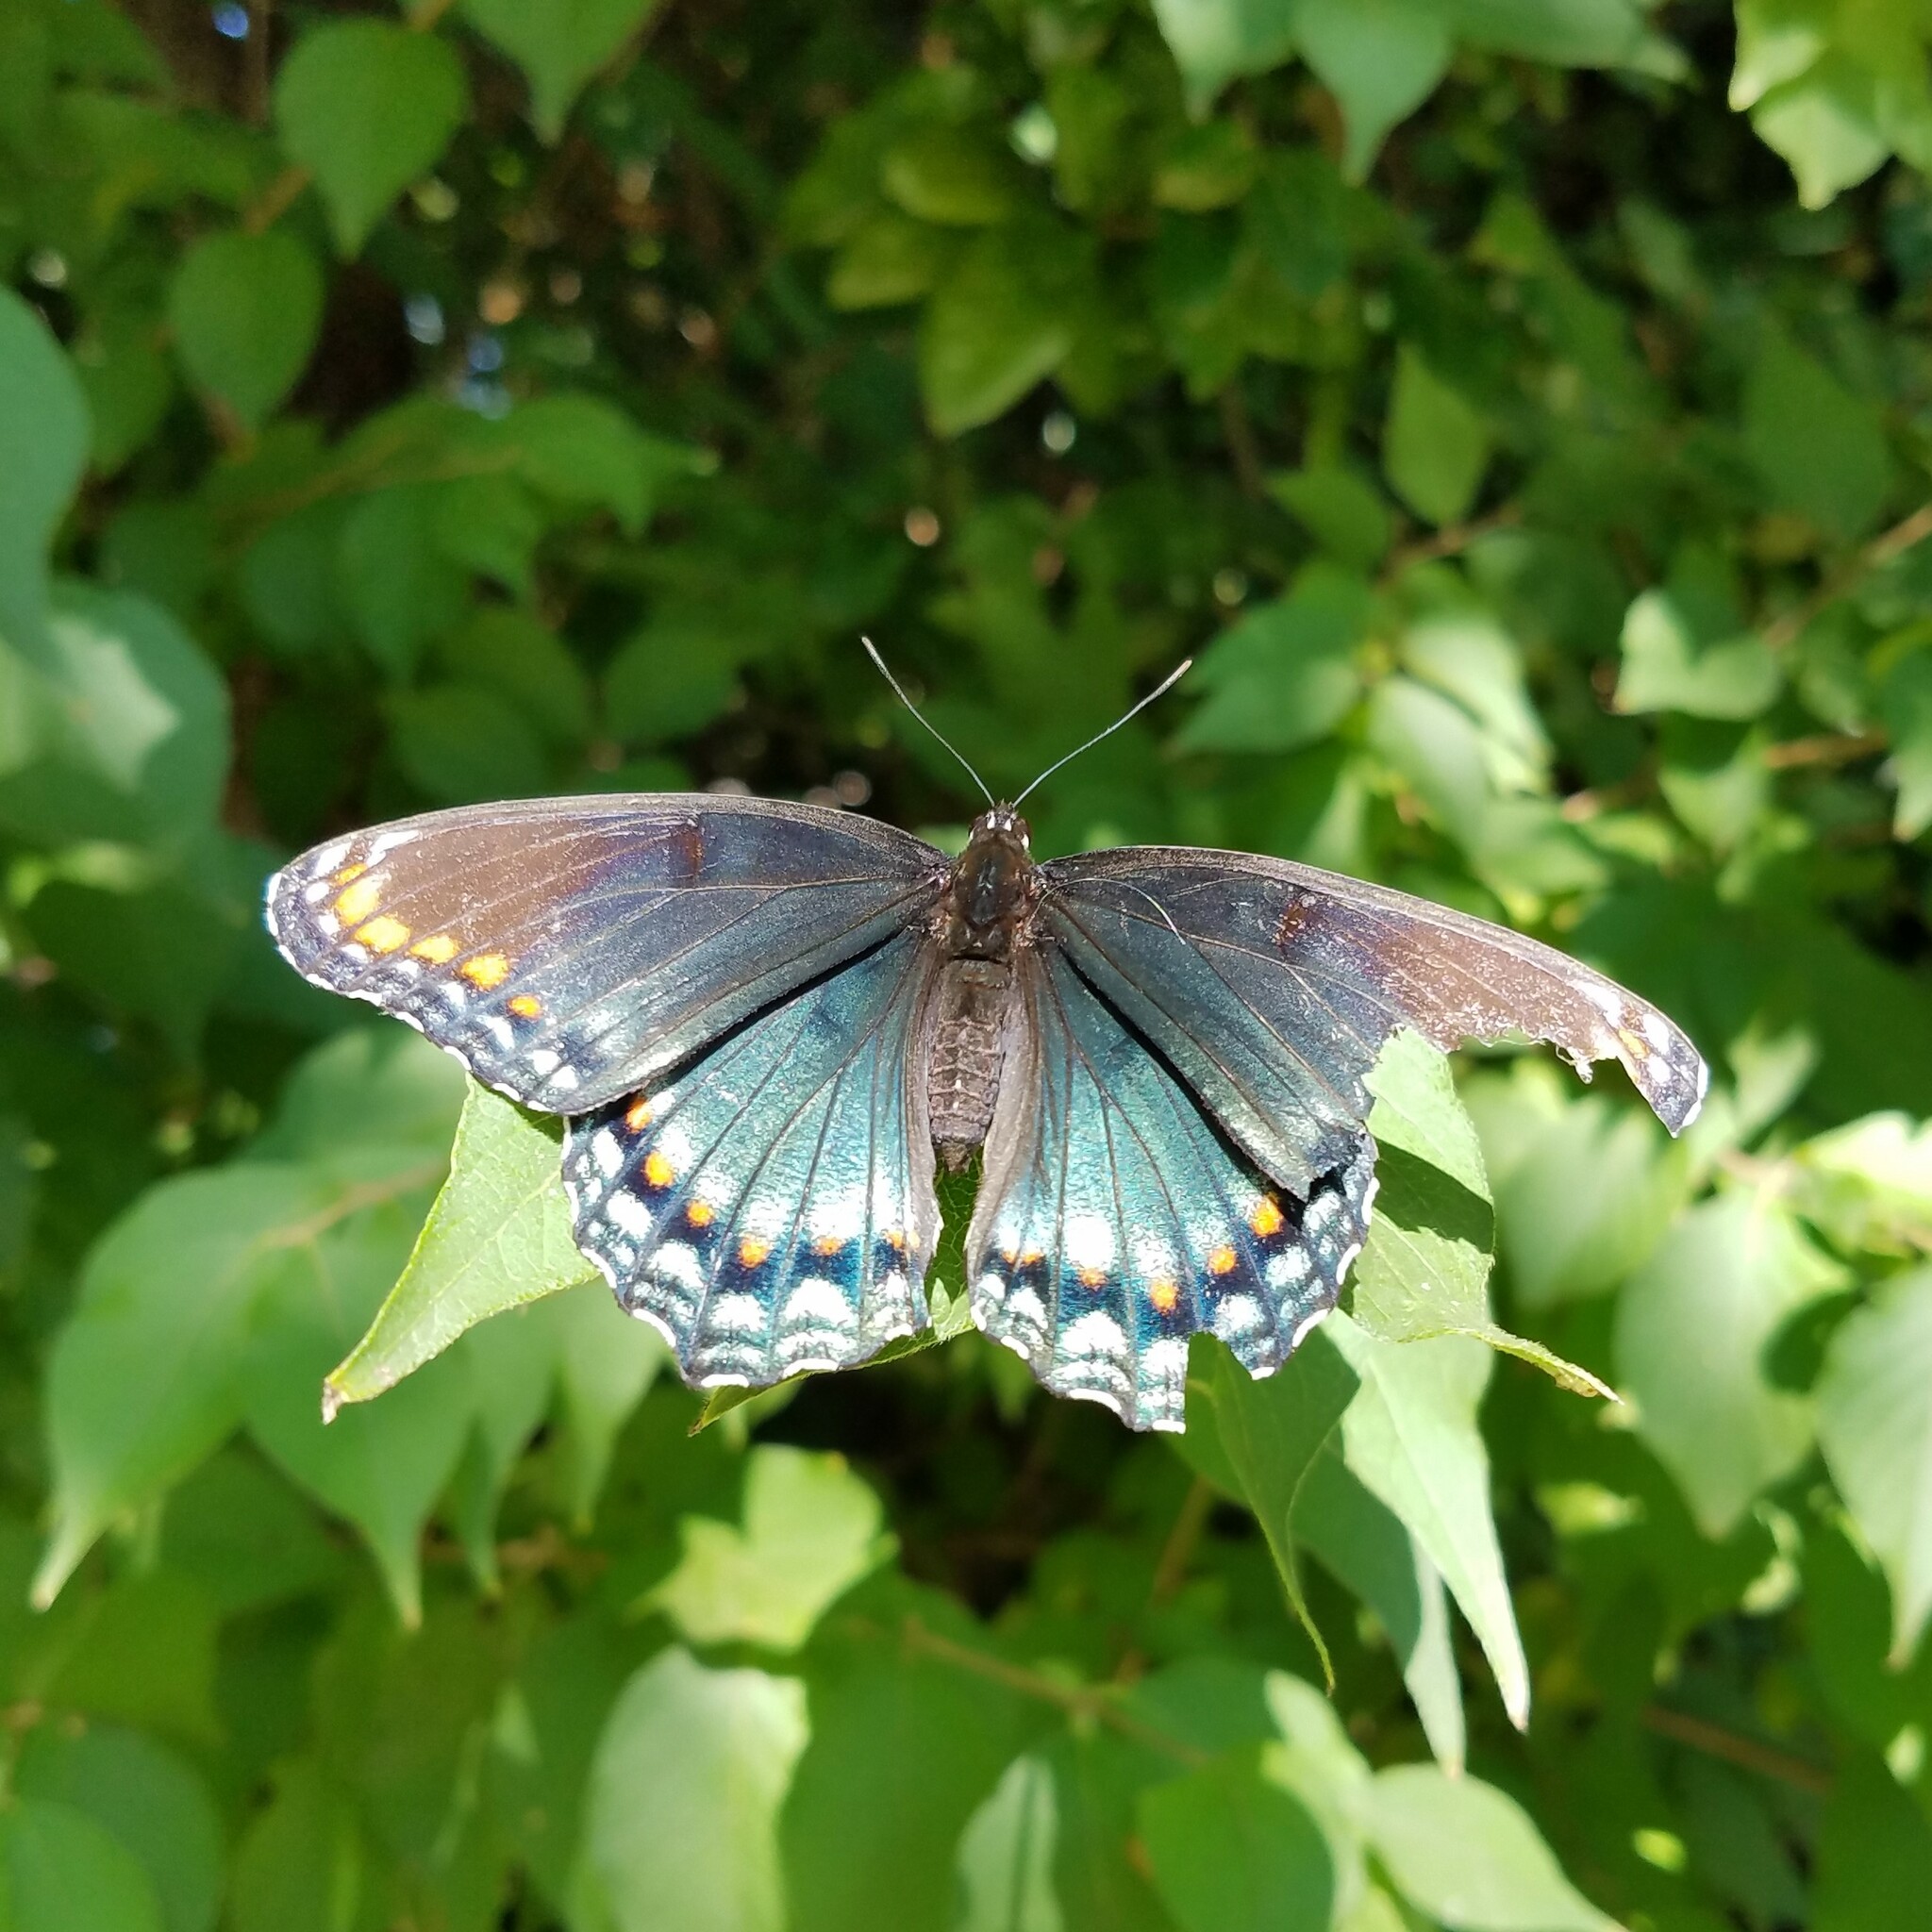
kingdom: Animalia
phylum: Arthropoda
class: Insecta
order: Lepidoptera
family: Nymphalidae
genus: Limenitis
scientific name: Limenitis arthemis
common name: Red-spotted admiral
